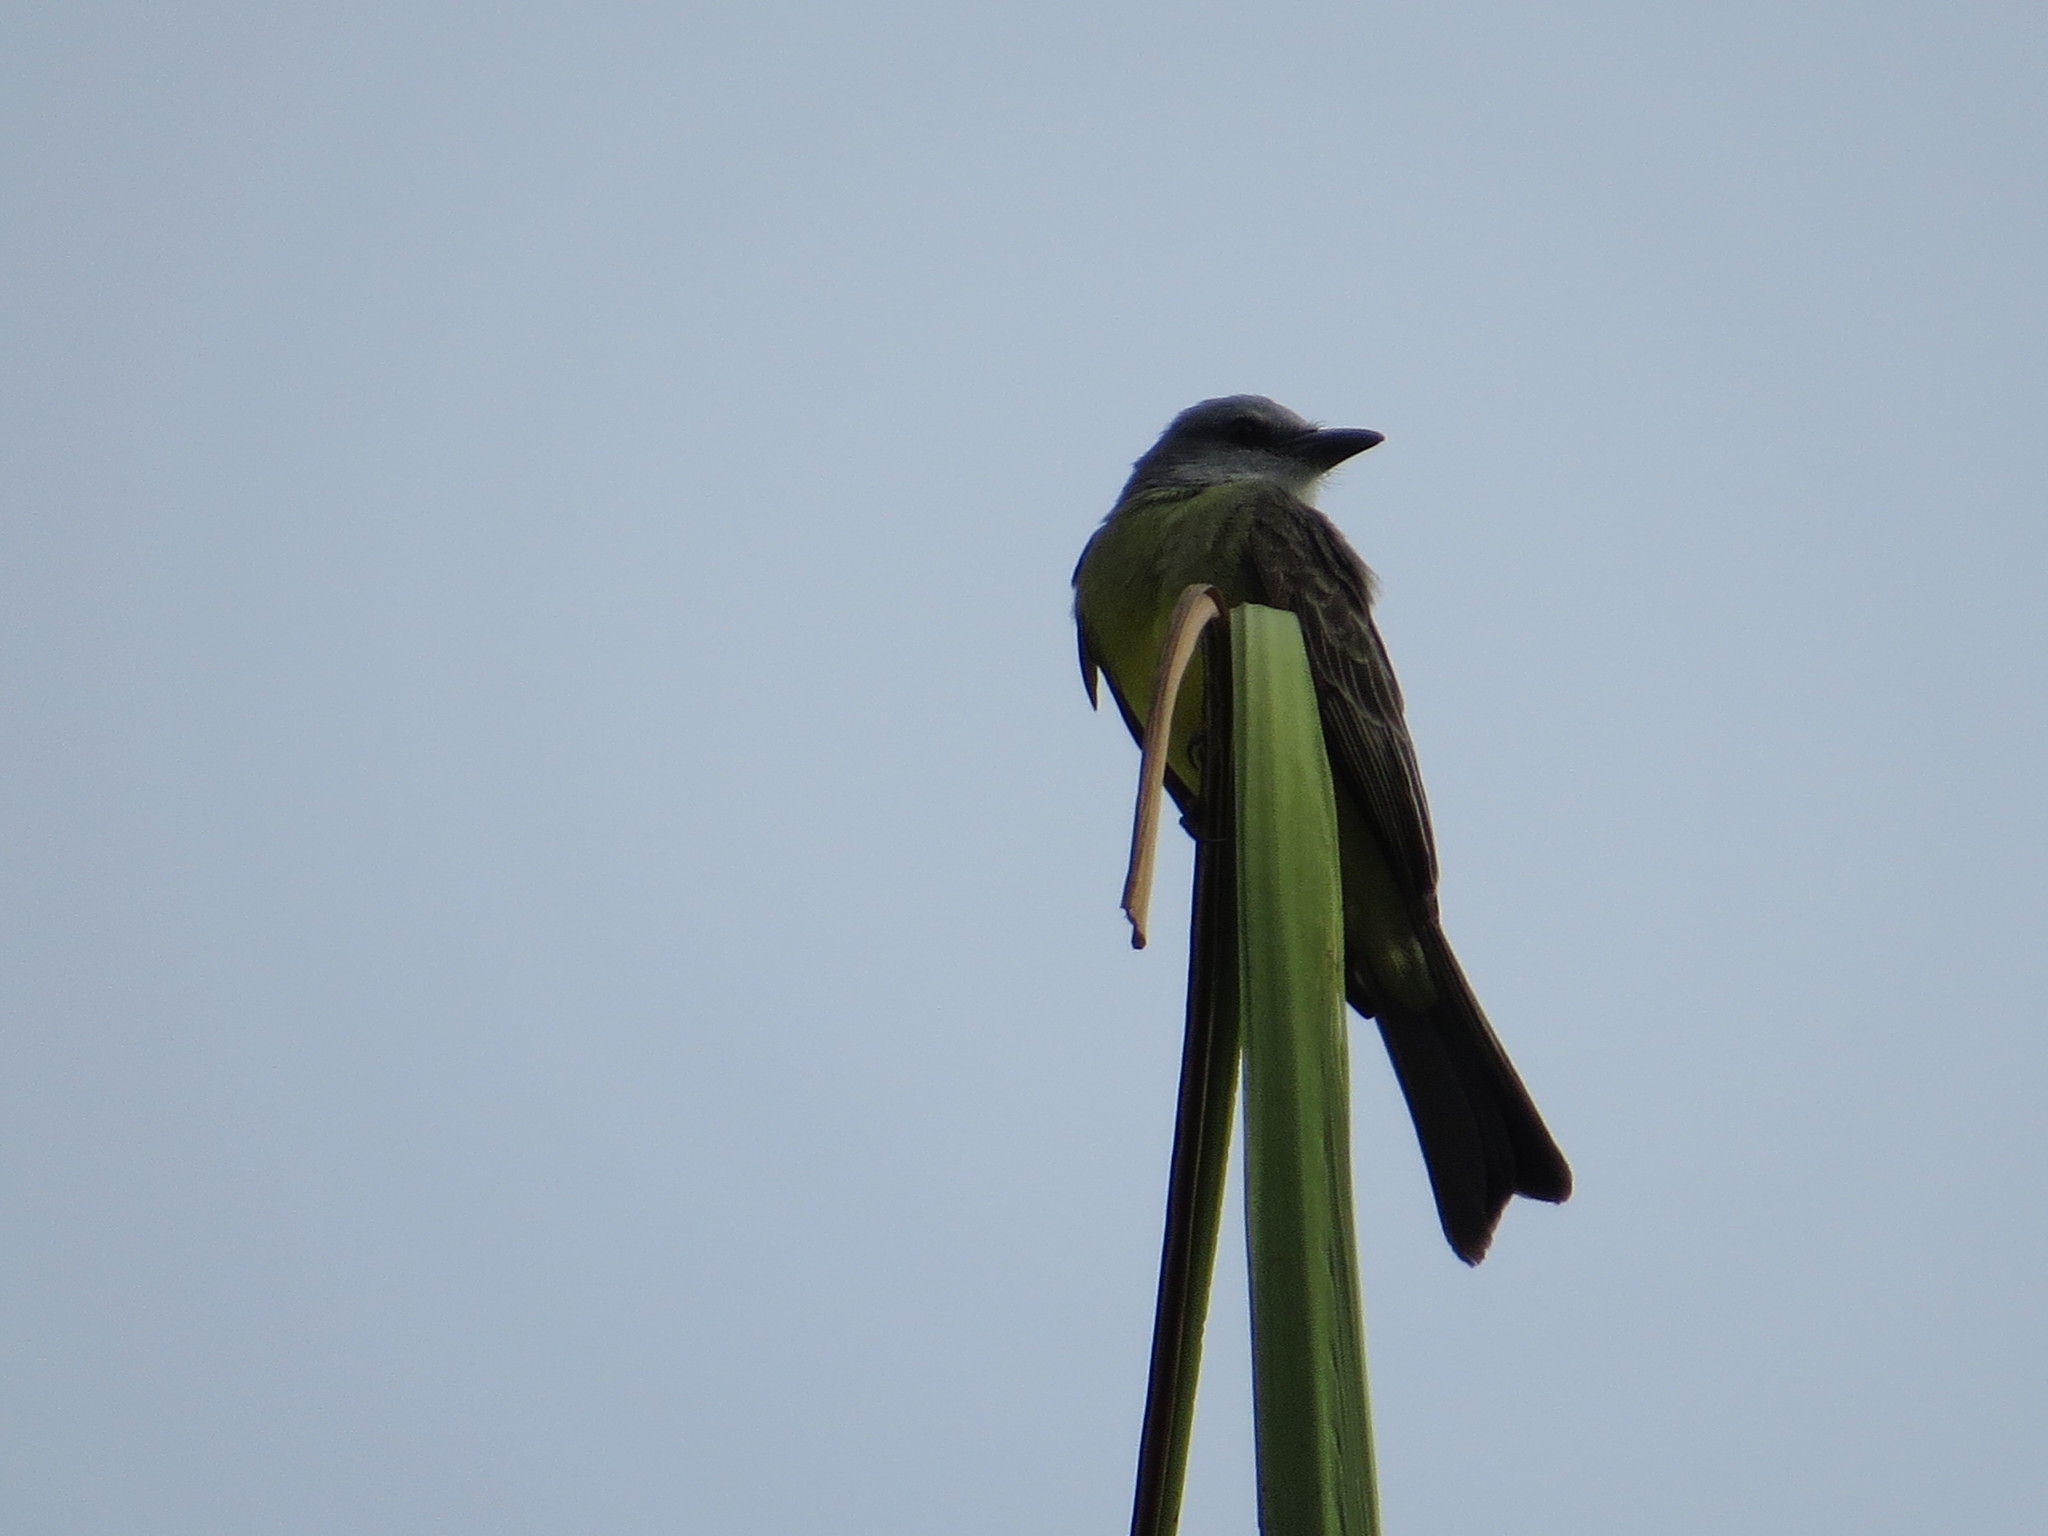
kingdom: Animalia
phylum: Chordata
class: Aves
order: Passeriformes
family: Tyrannidae
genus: Tyrannus
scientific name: Tyrannus melancholicus
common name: Tropical kingbird
